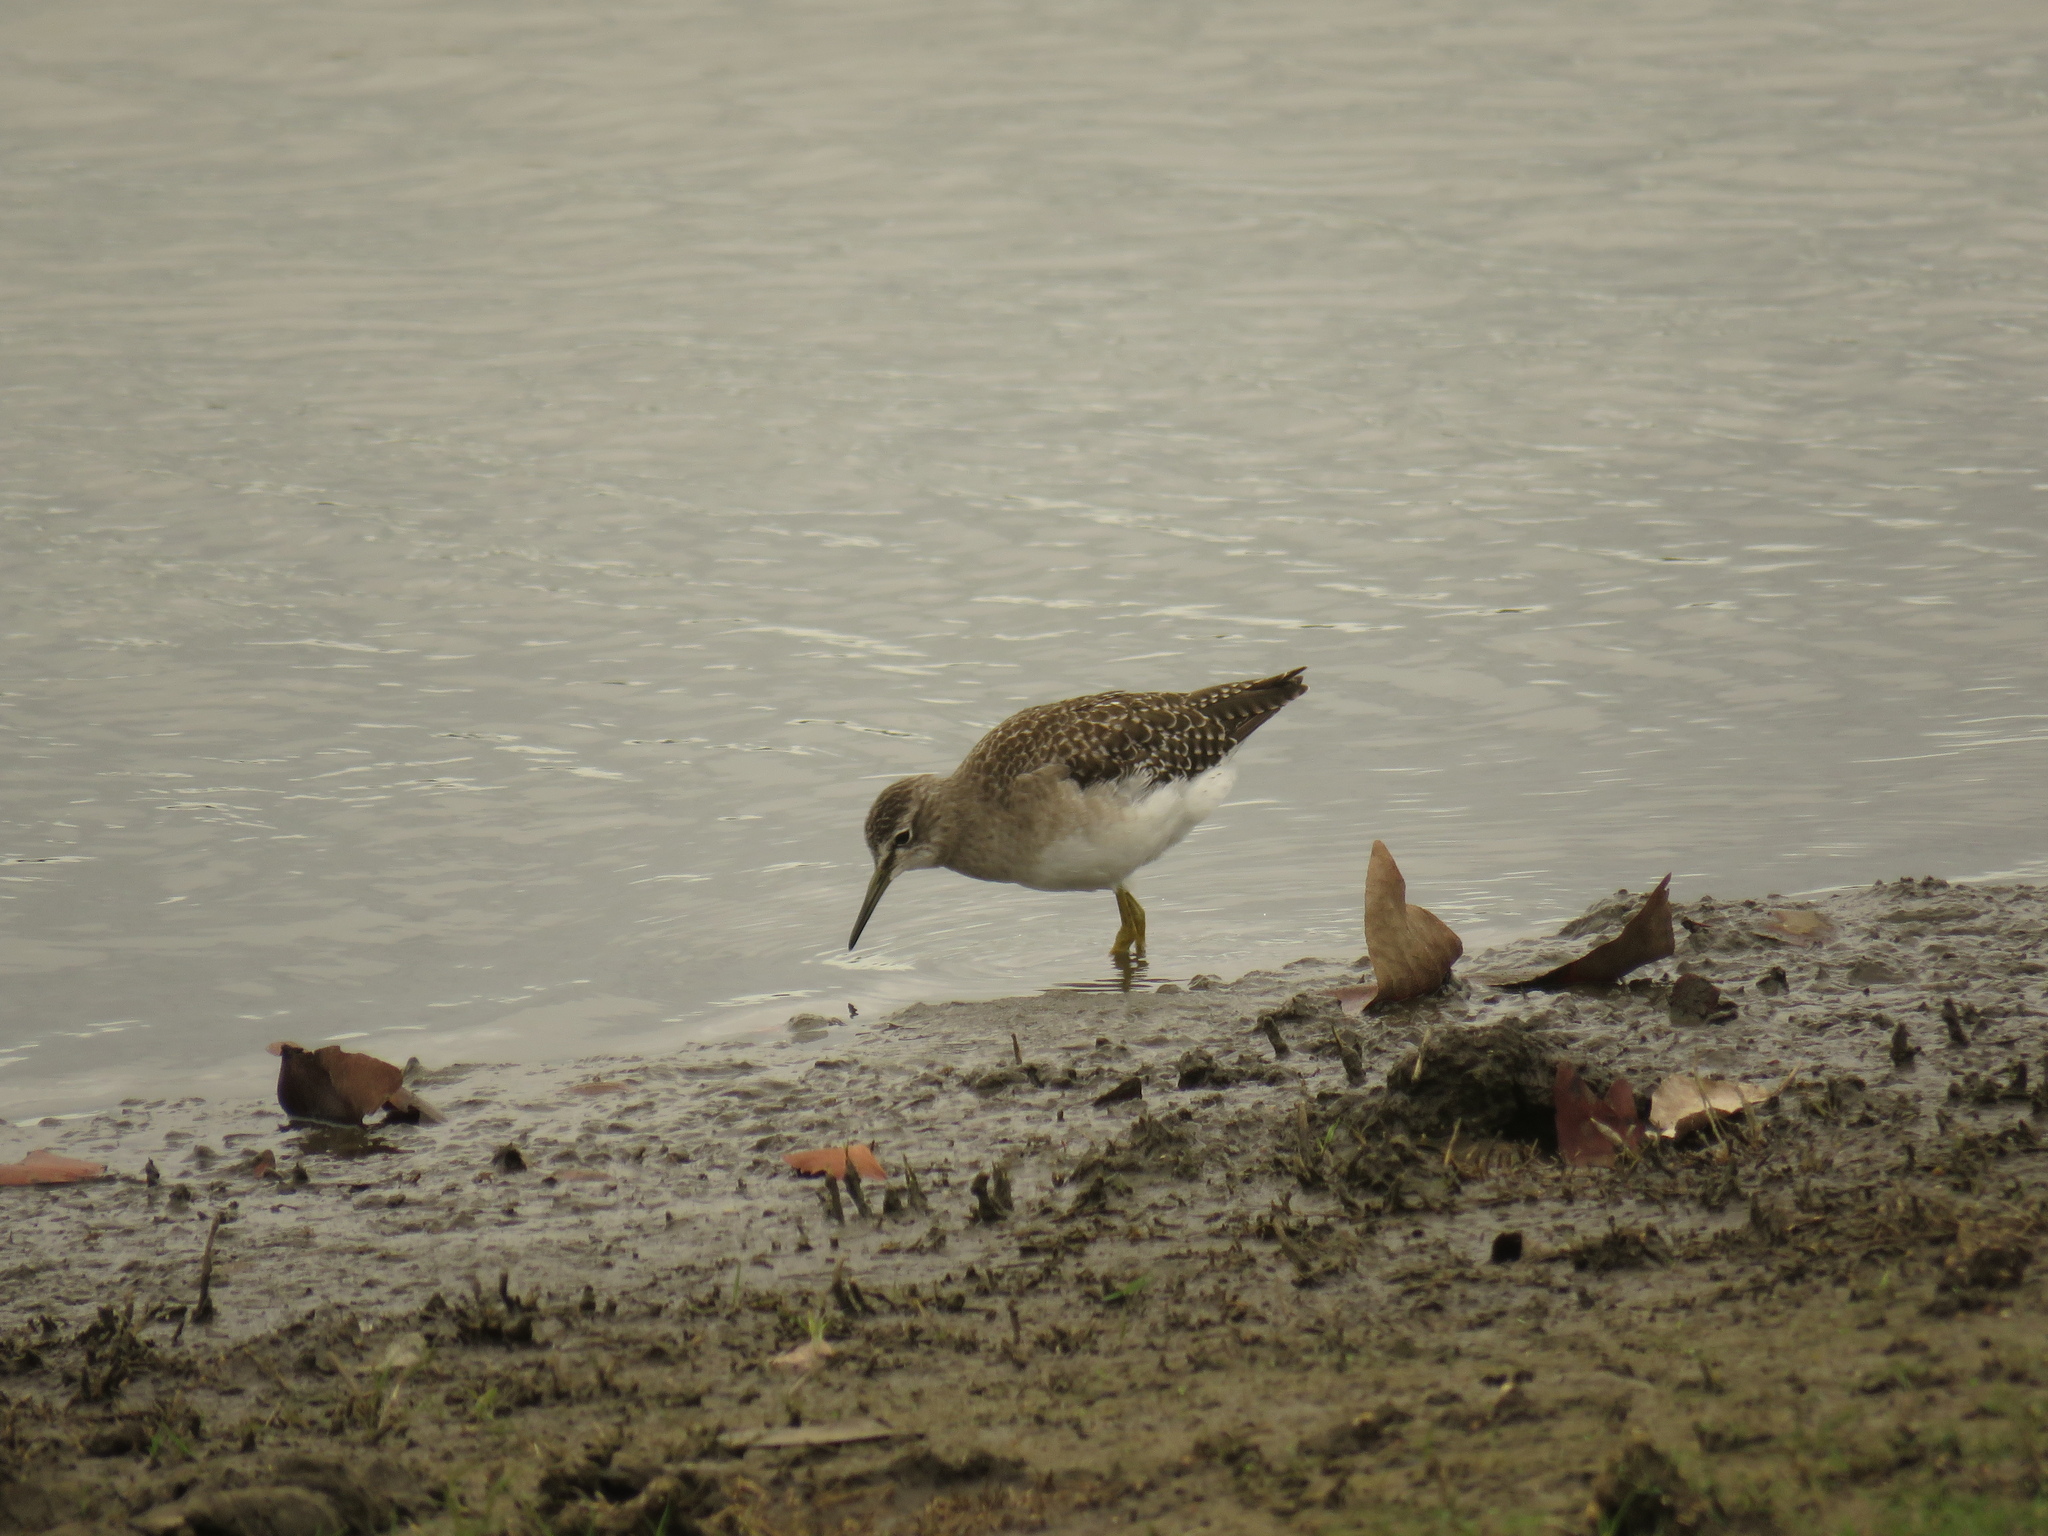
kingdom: Animalia
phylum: Chordata
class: Aves
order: Charadriiformes
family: Scolopacidae
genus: Tringa
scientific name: Tringa glareola
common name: Wood sandpiper
